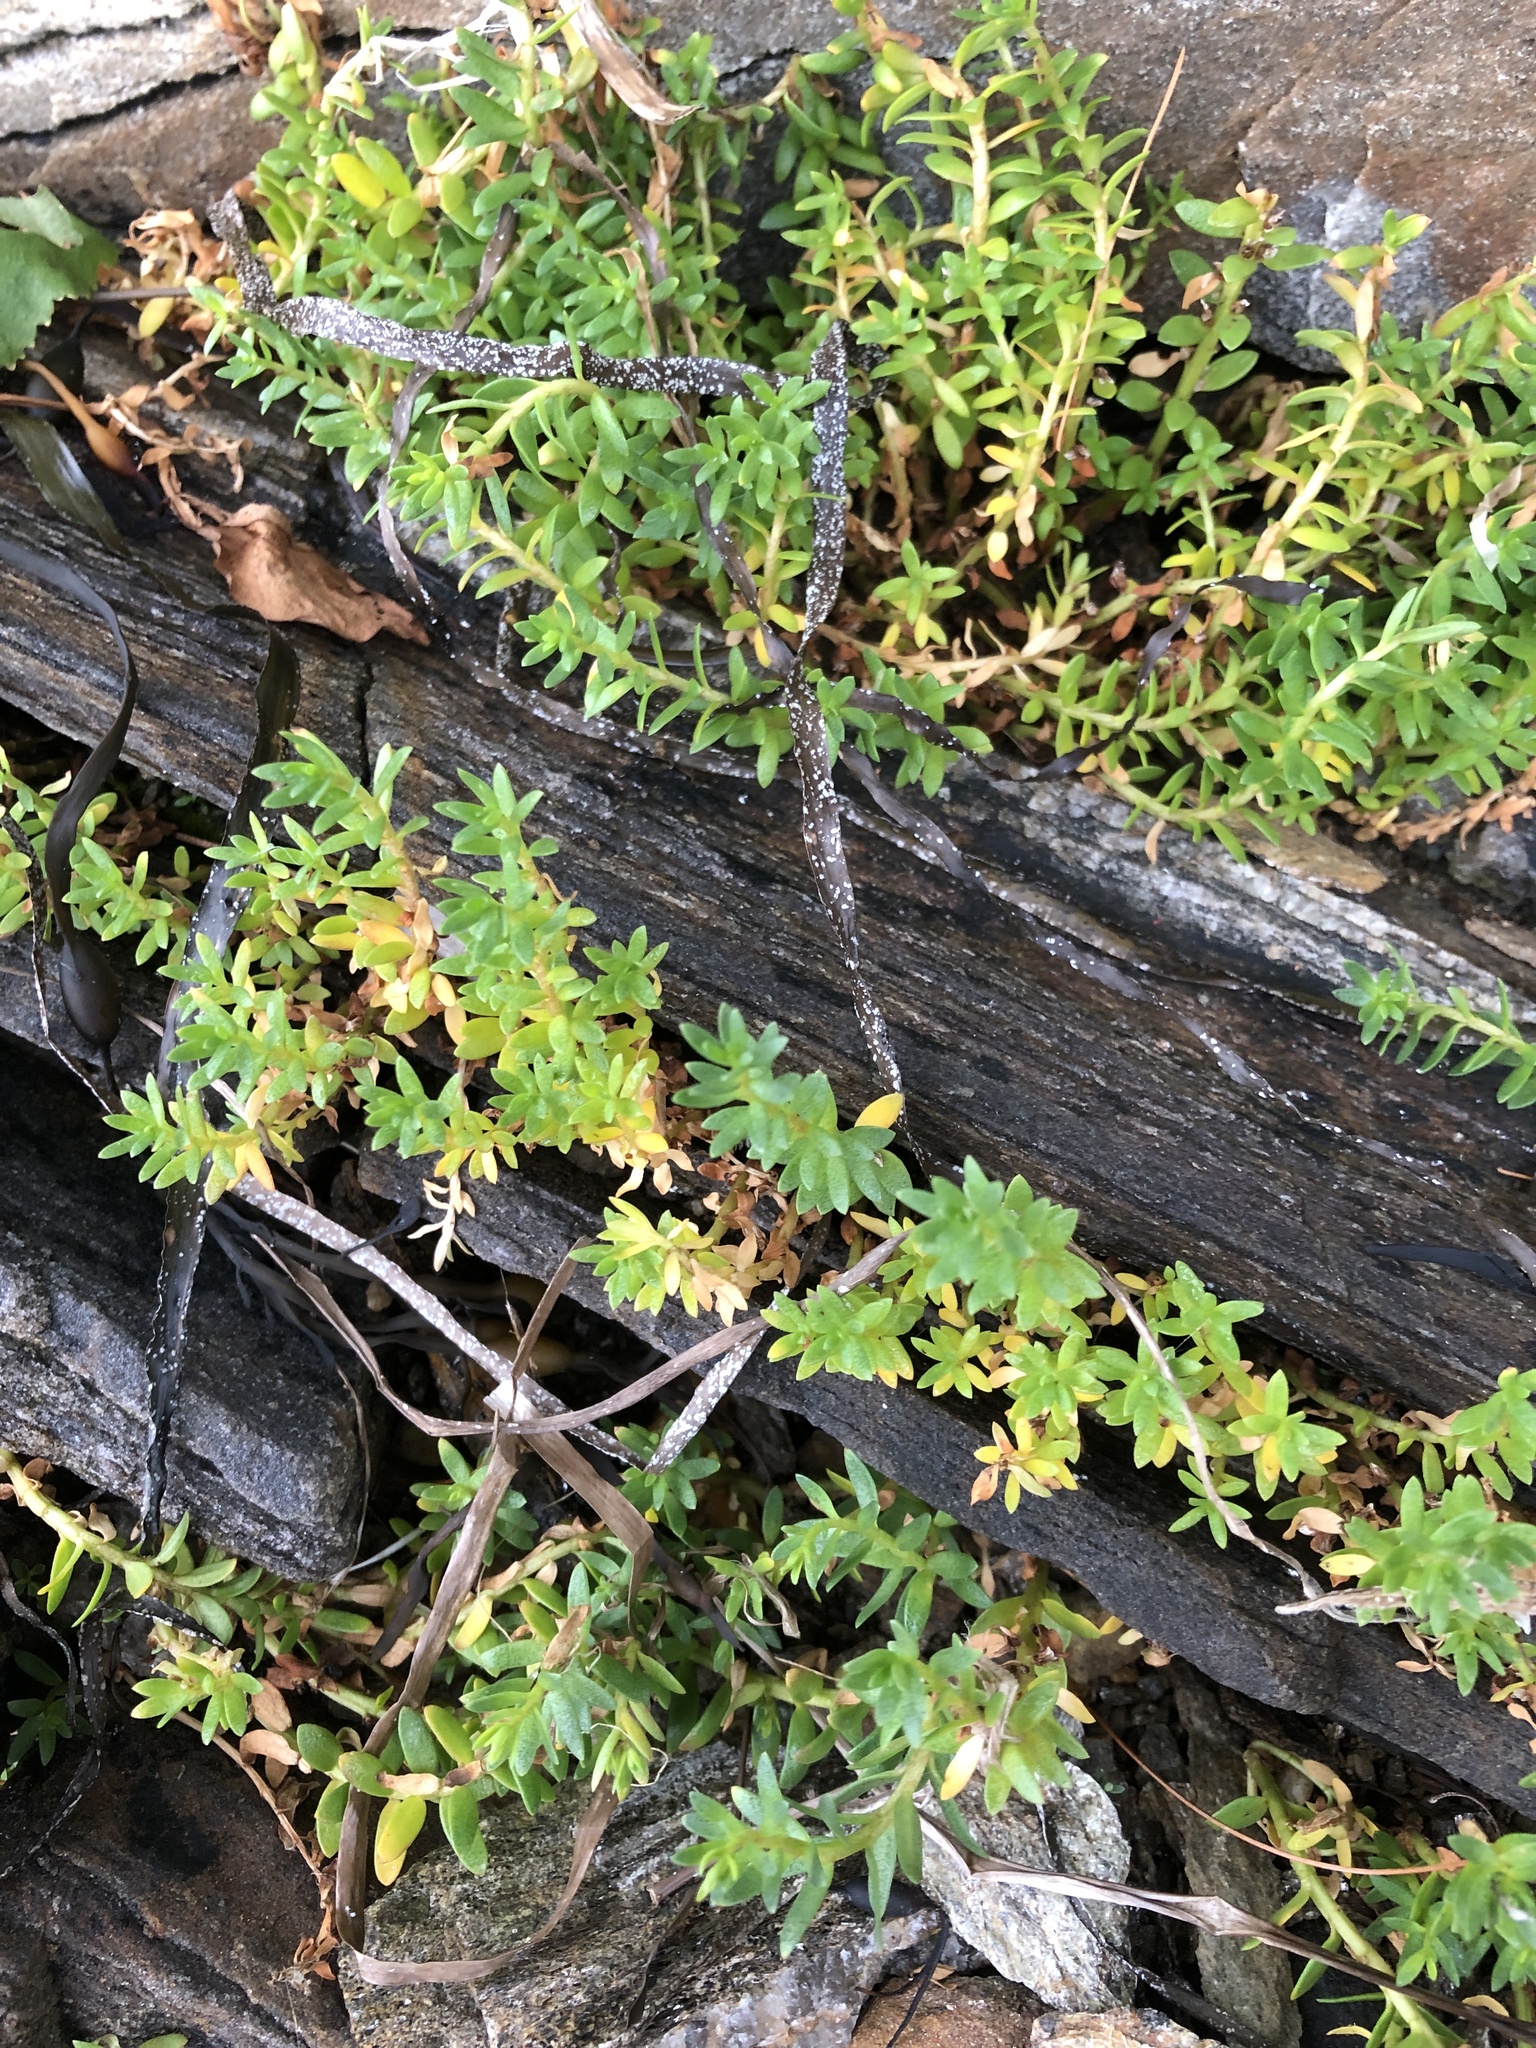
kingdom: Plantae
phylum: Tracheophyta
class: Magnoliopsida
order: Ericales
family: Primulaceae
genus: Lysimachia
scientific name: Lysimachia maritima
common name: Sea milkwort
